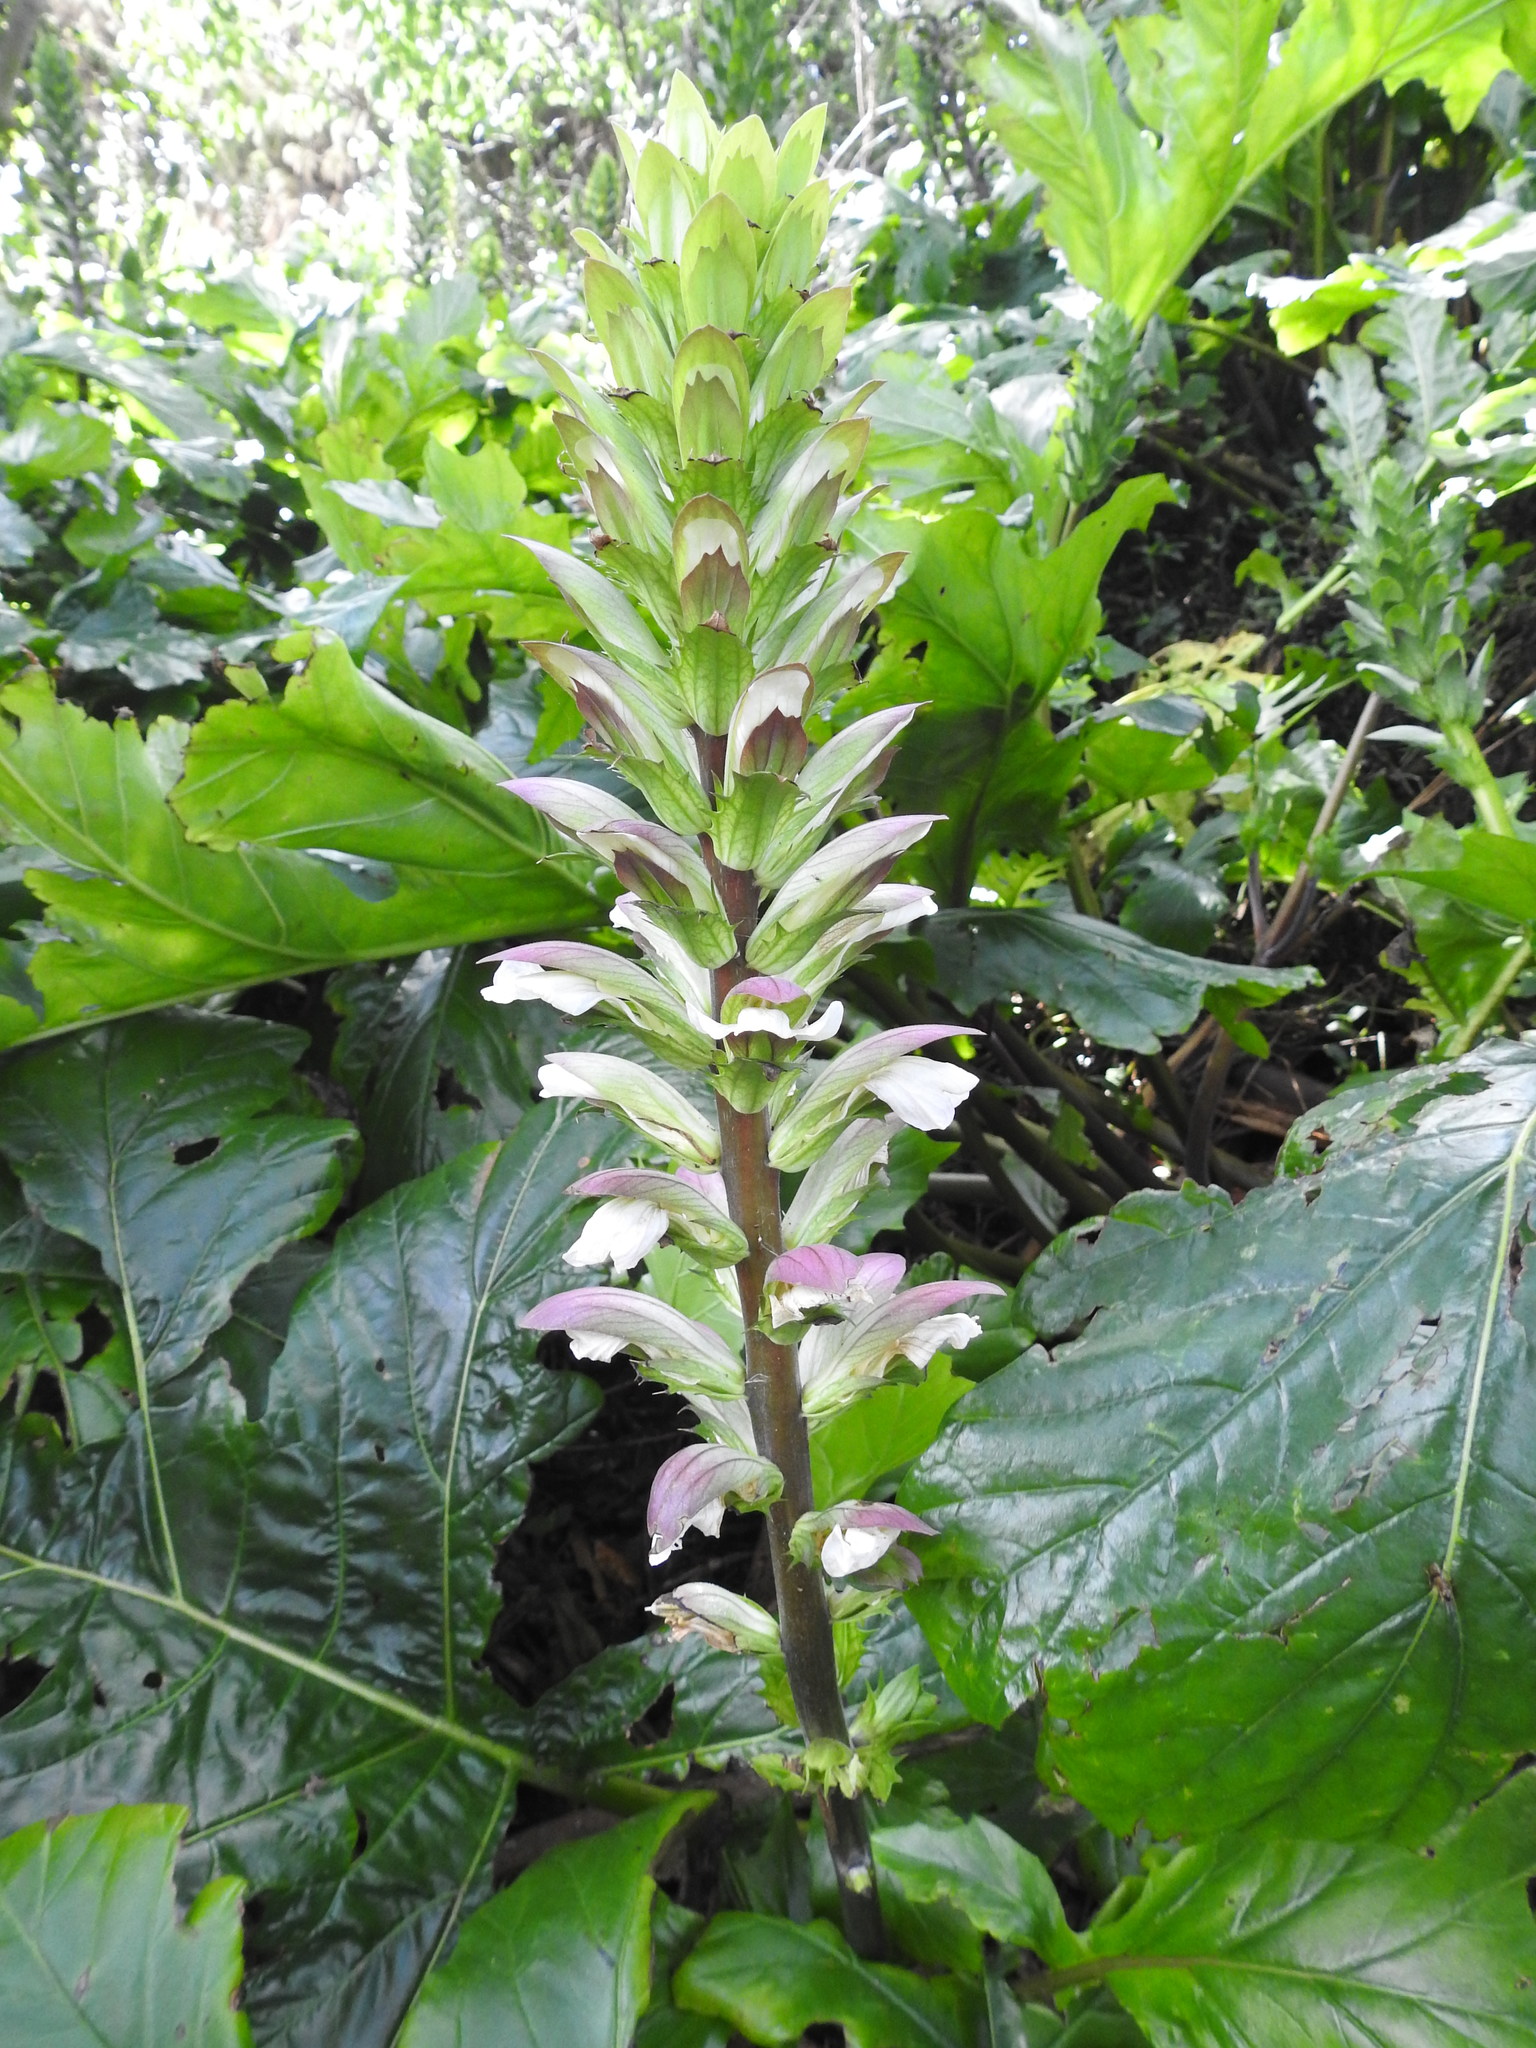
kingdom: Plantae
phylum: Tracheophyta
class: Magnoliopsida
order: Lamiales
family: Acanthaceae
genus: Acanthus
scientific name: Acanthus mollis
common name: Bear's-breech
